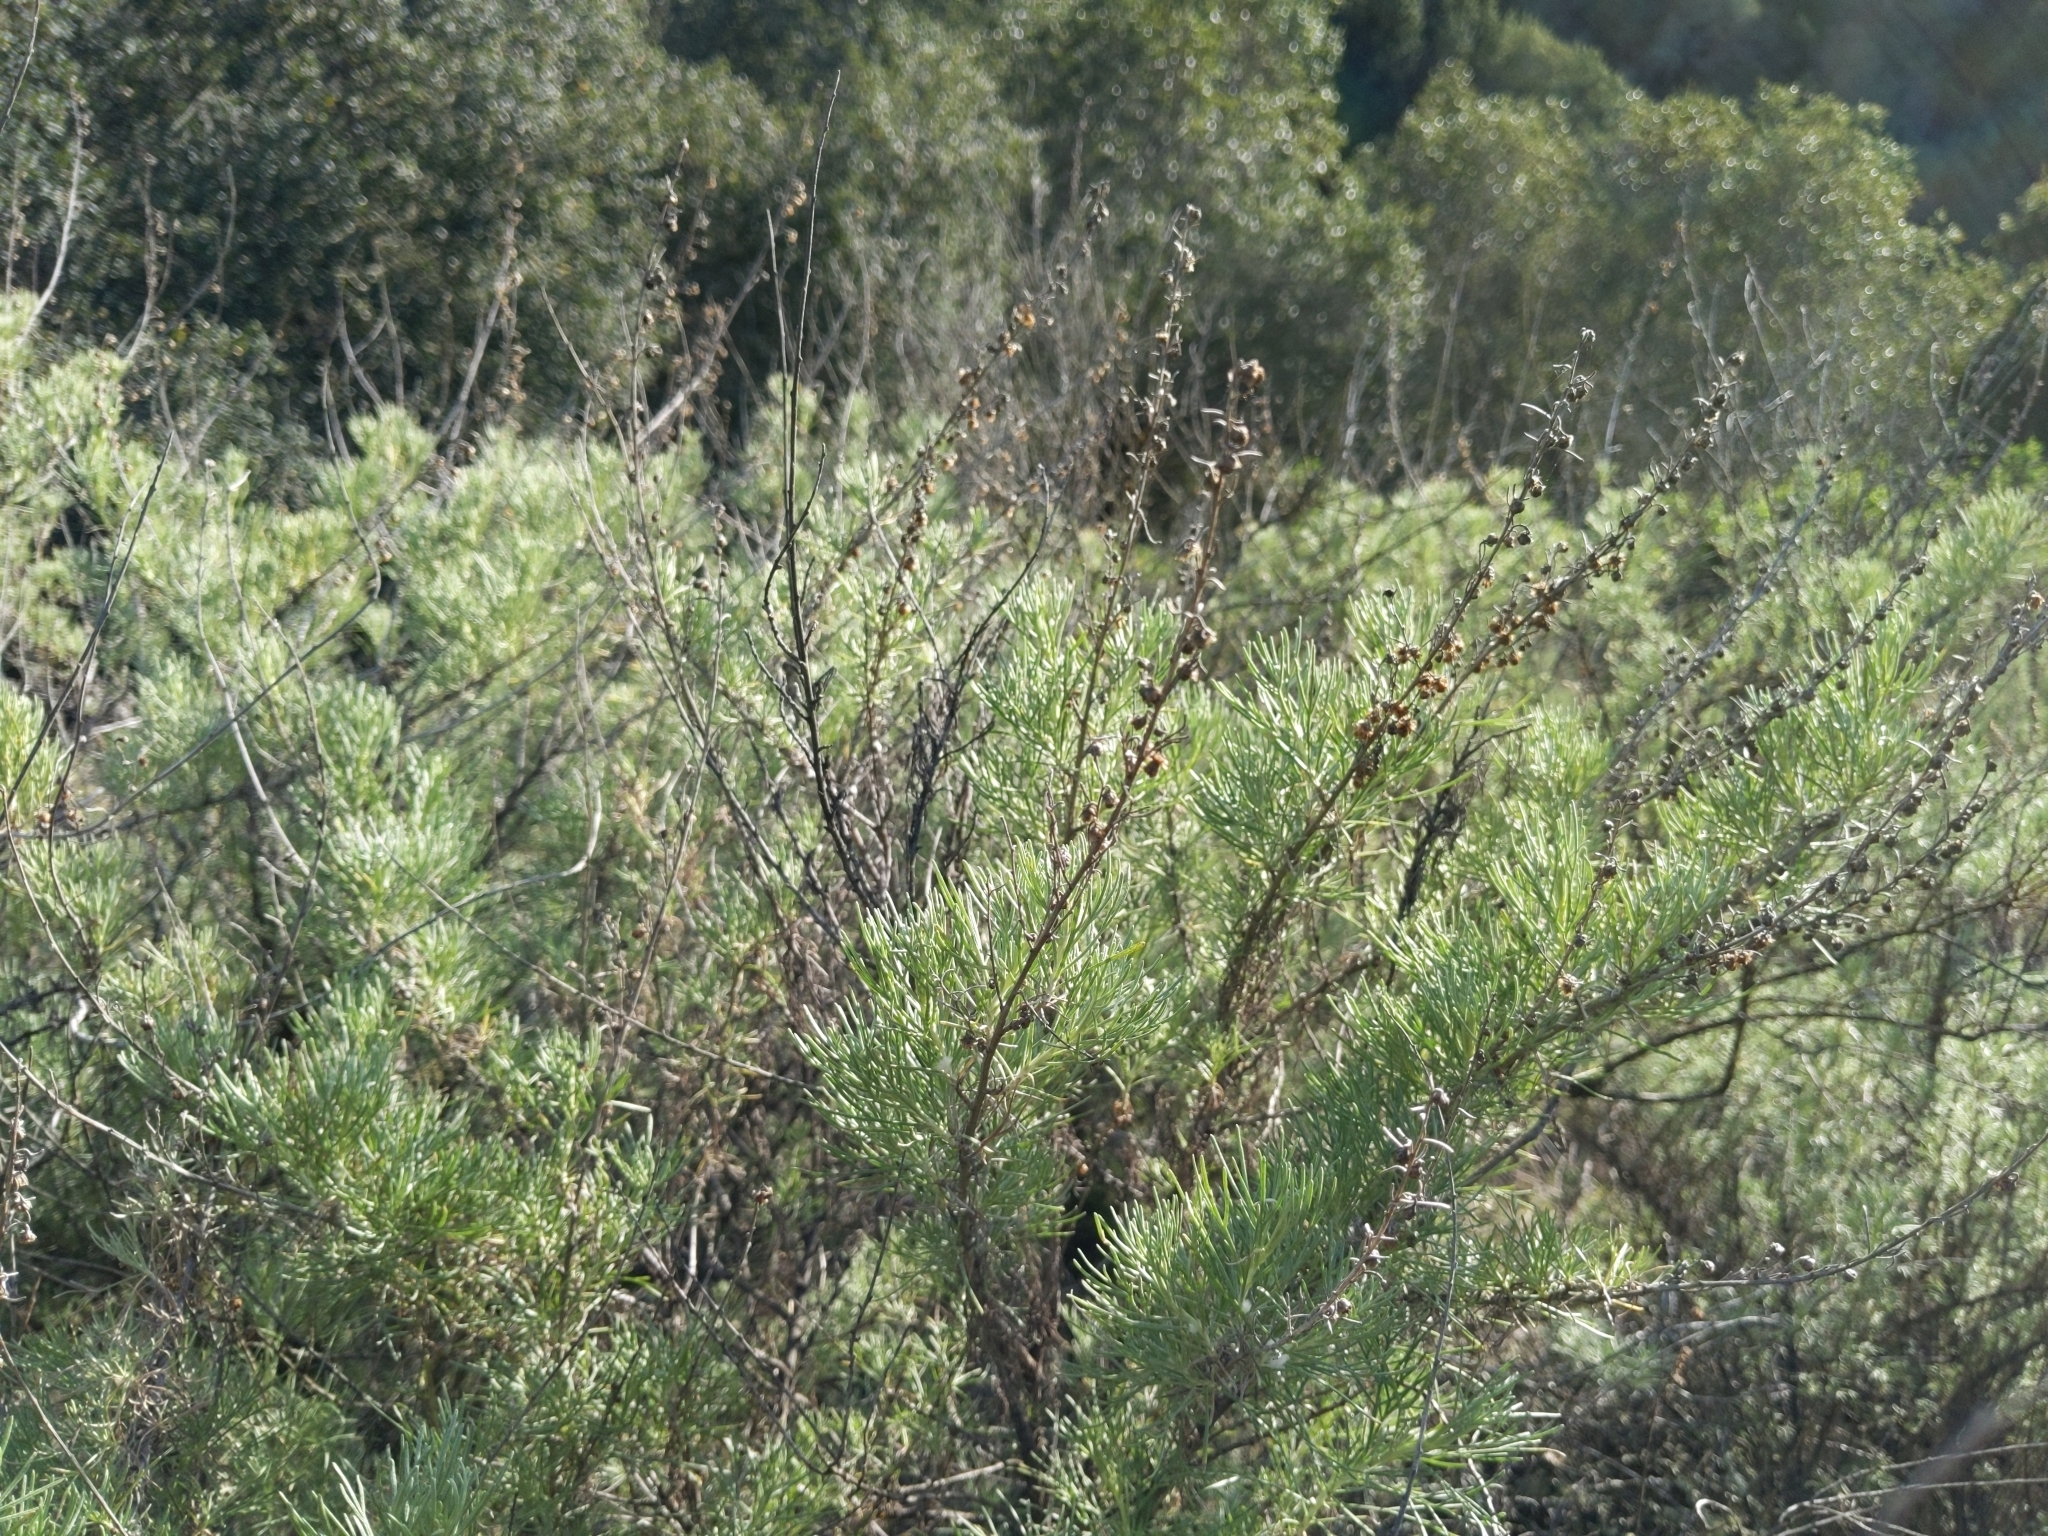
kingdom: Plantae
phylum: Tracheophyta
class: Magnoliopsida
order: Asterales
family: Asteraceae
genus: Artemisia
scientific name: Artemisia californica
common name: California sagebrush
